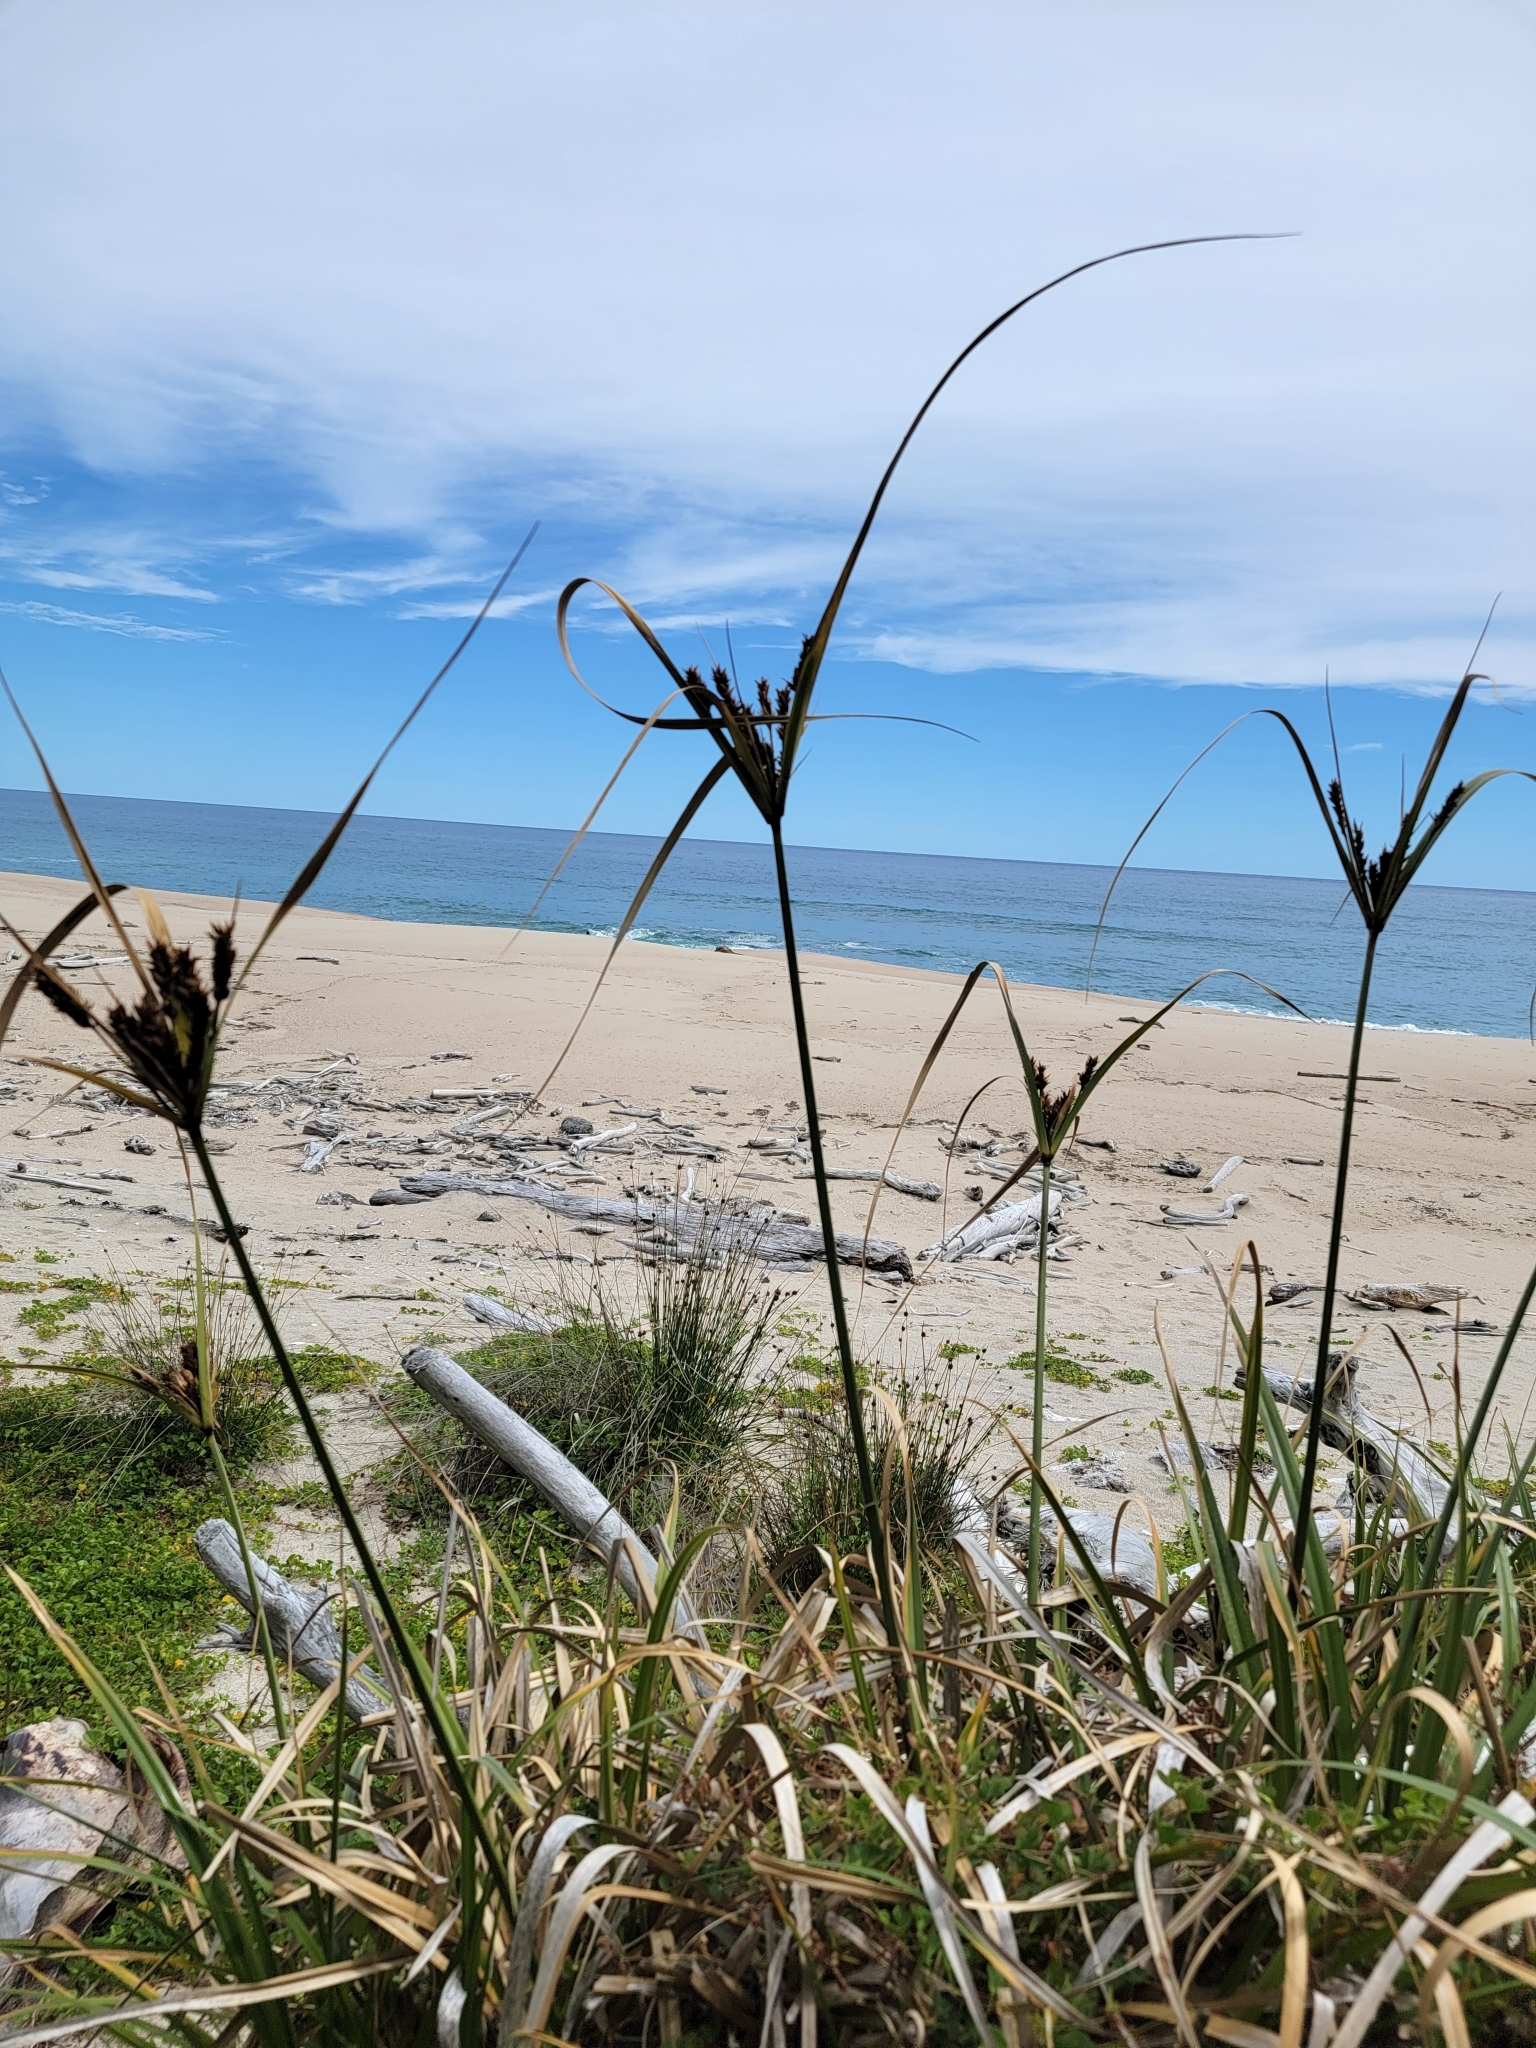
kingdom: Plantae
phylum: Tracheophyta
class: Liliopsida
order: Poales
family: Cyperaceae
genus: Cyperus
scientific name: Cyperus ustulatus
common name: Giant umbrella-sedge
